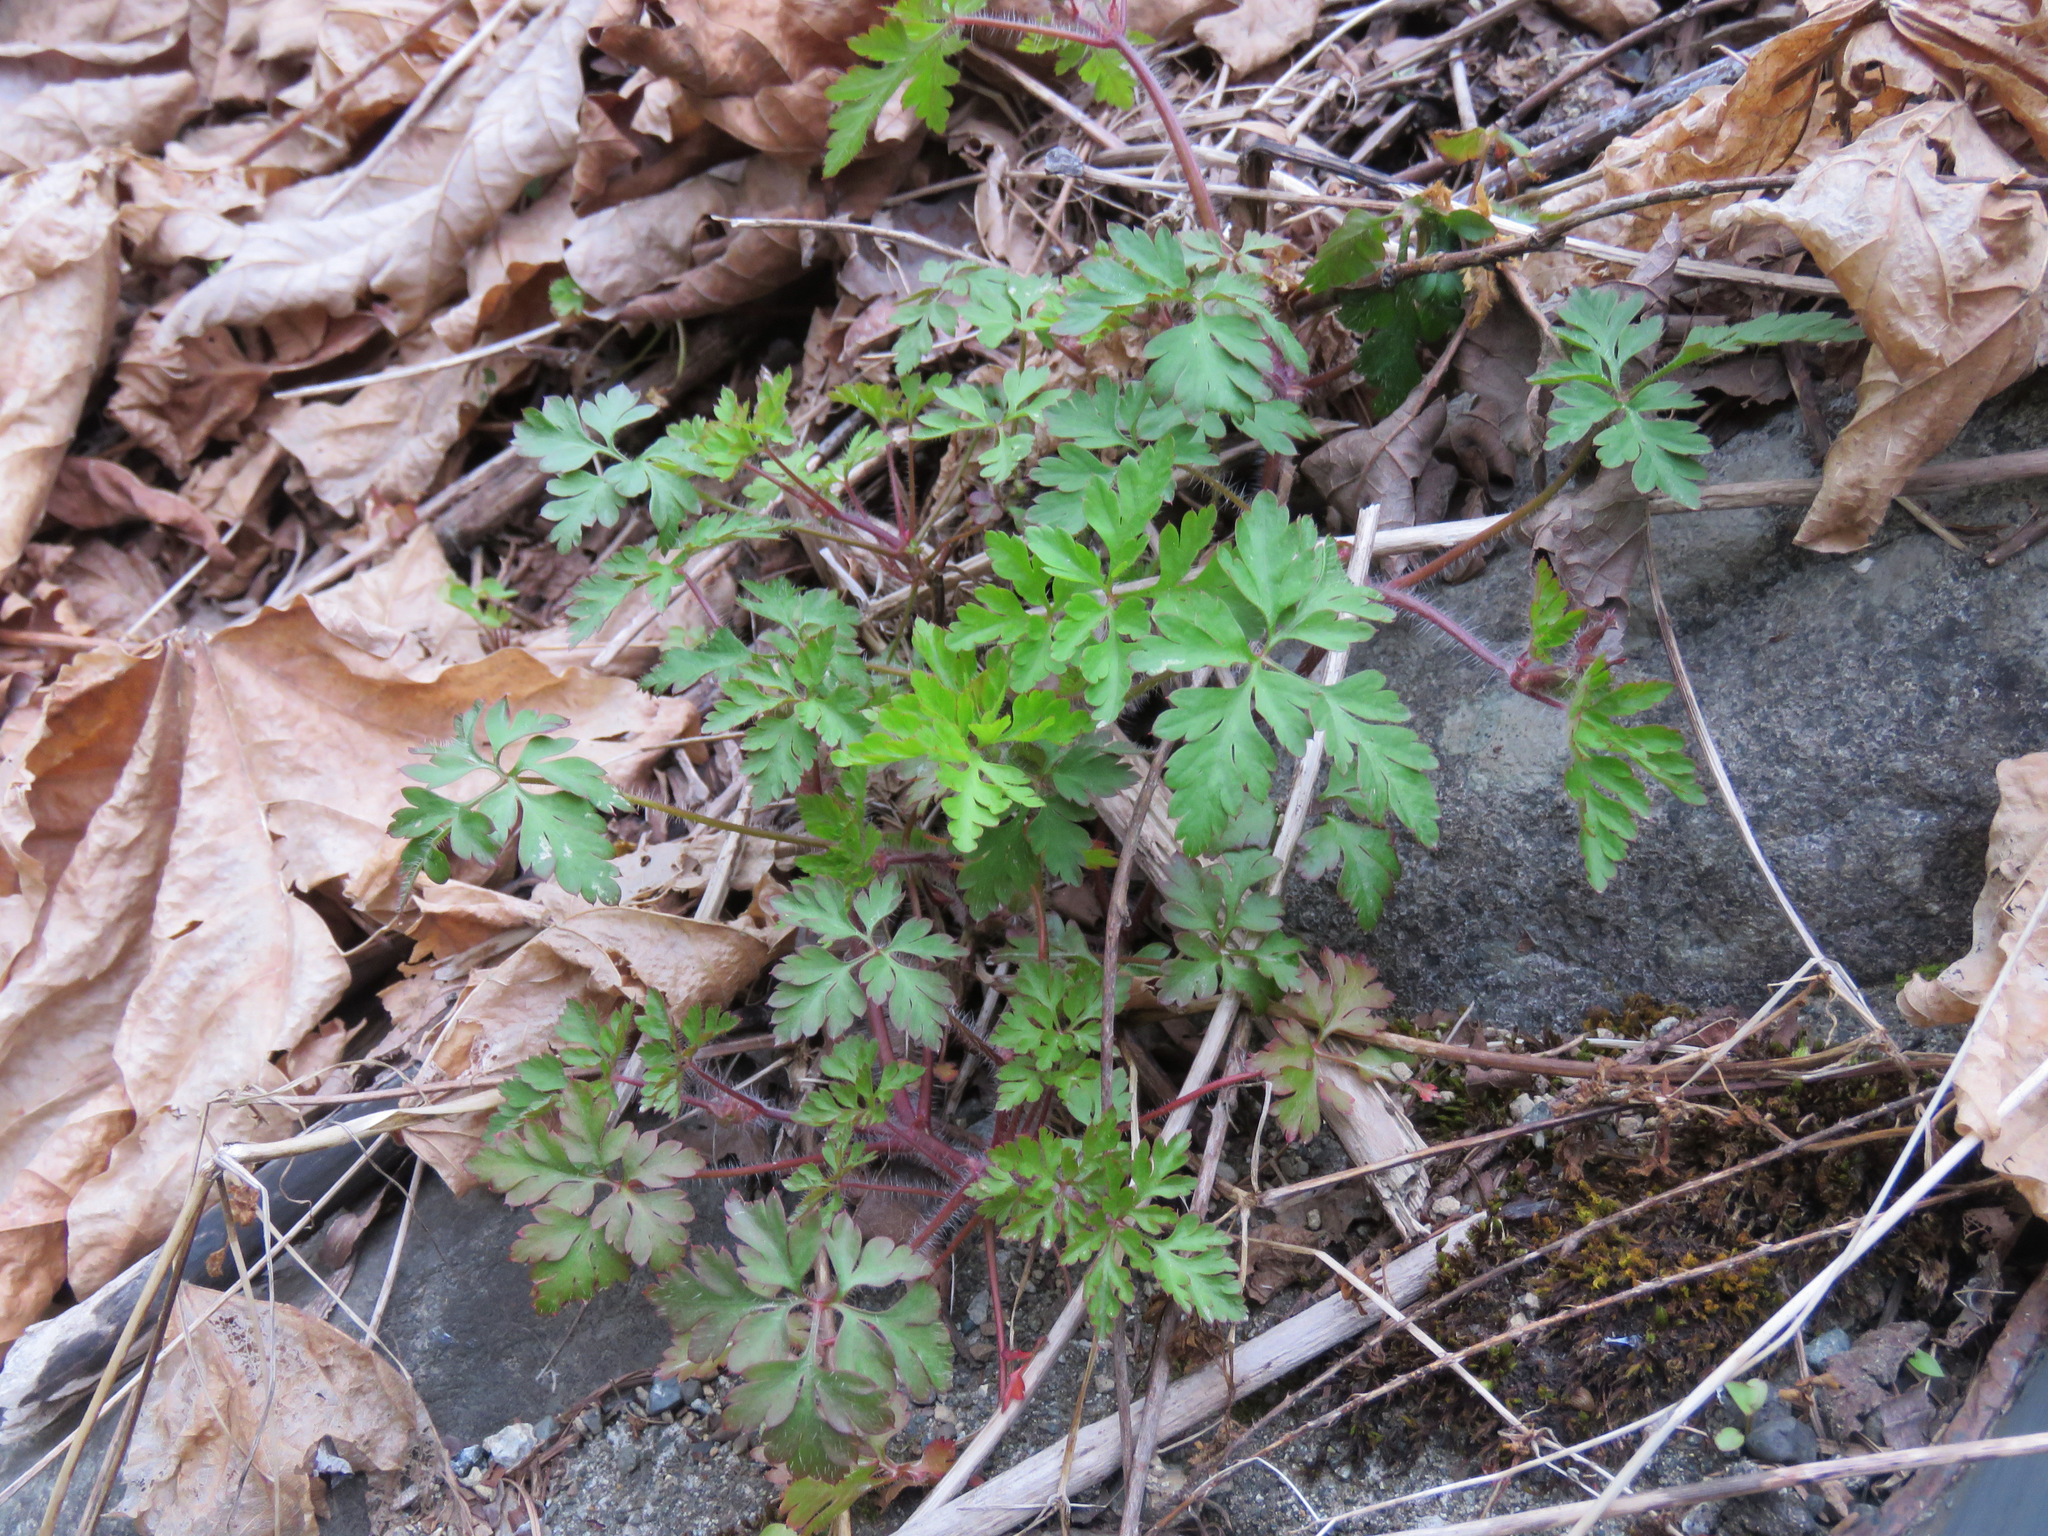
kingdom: Plantae
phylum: Tracheophyta
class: Magnoliopsida
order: Geraniales
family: Geraniaceae
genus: Geranium
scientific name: Geranium robertianum
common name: Herb-robert
